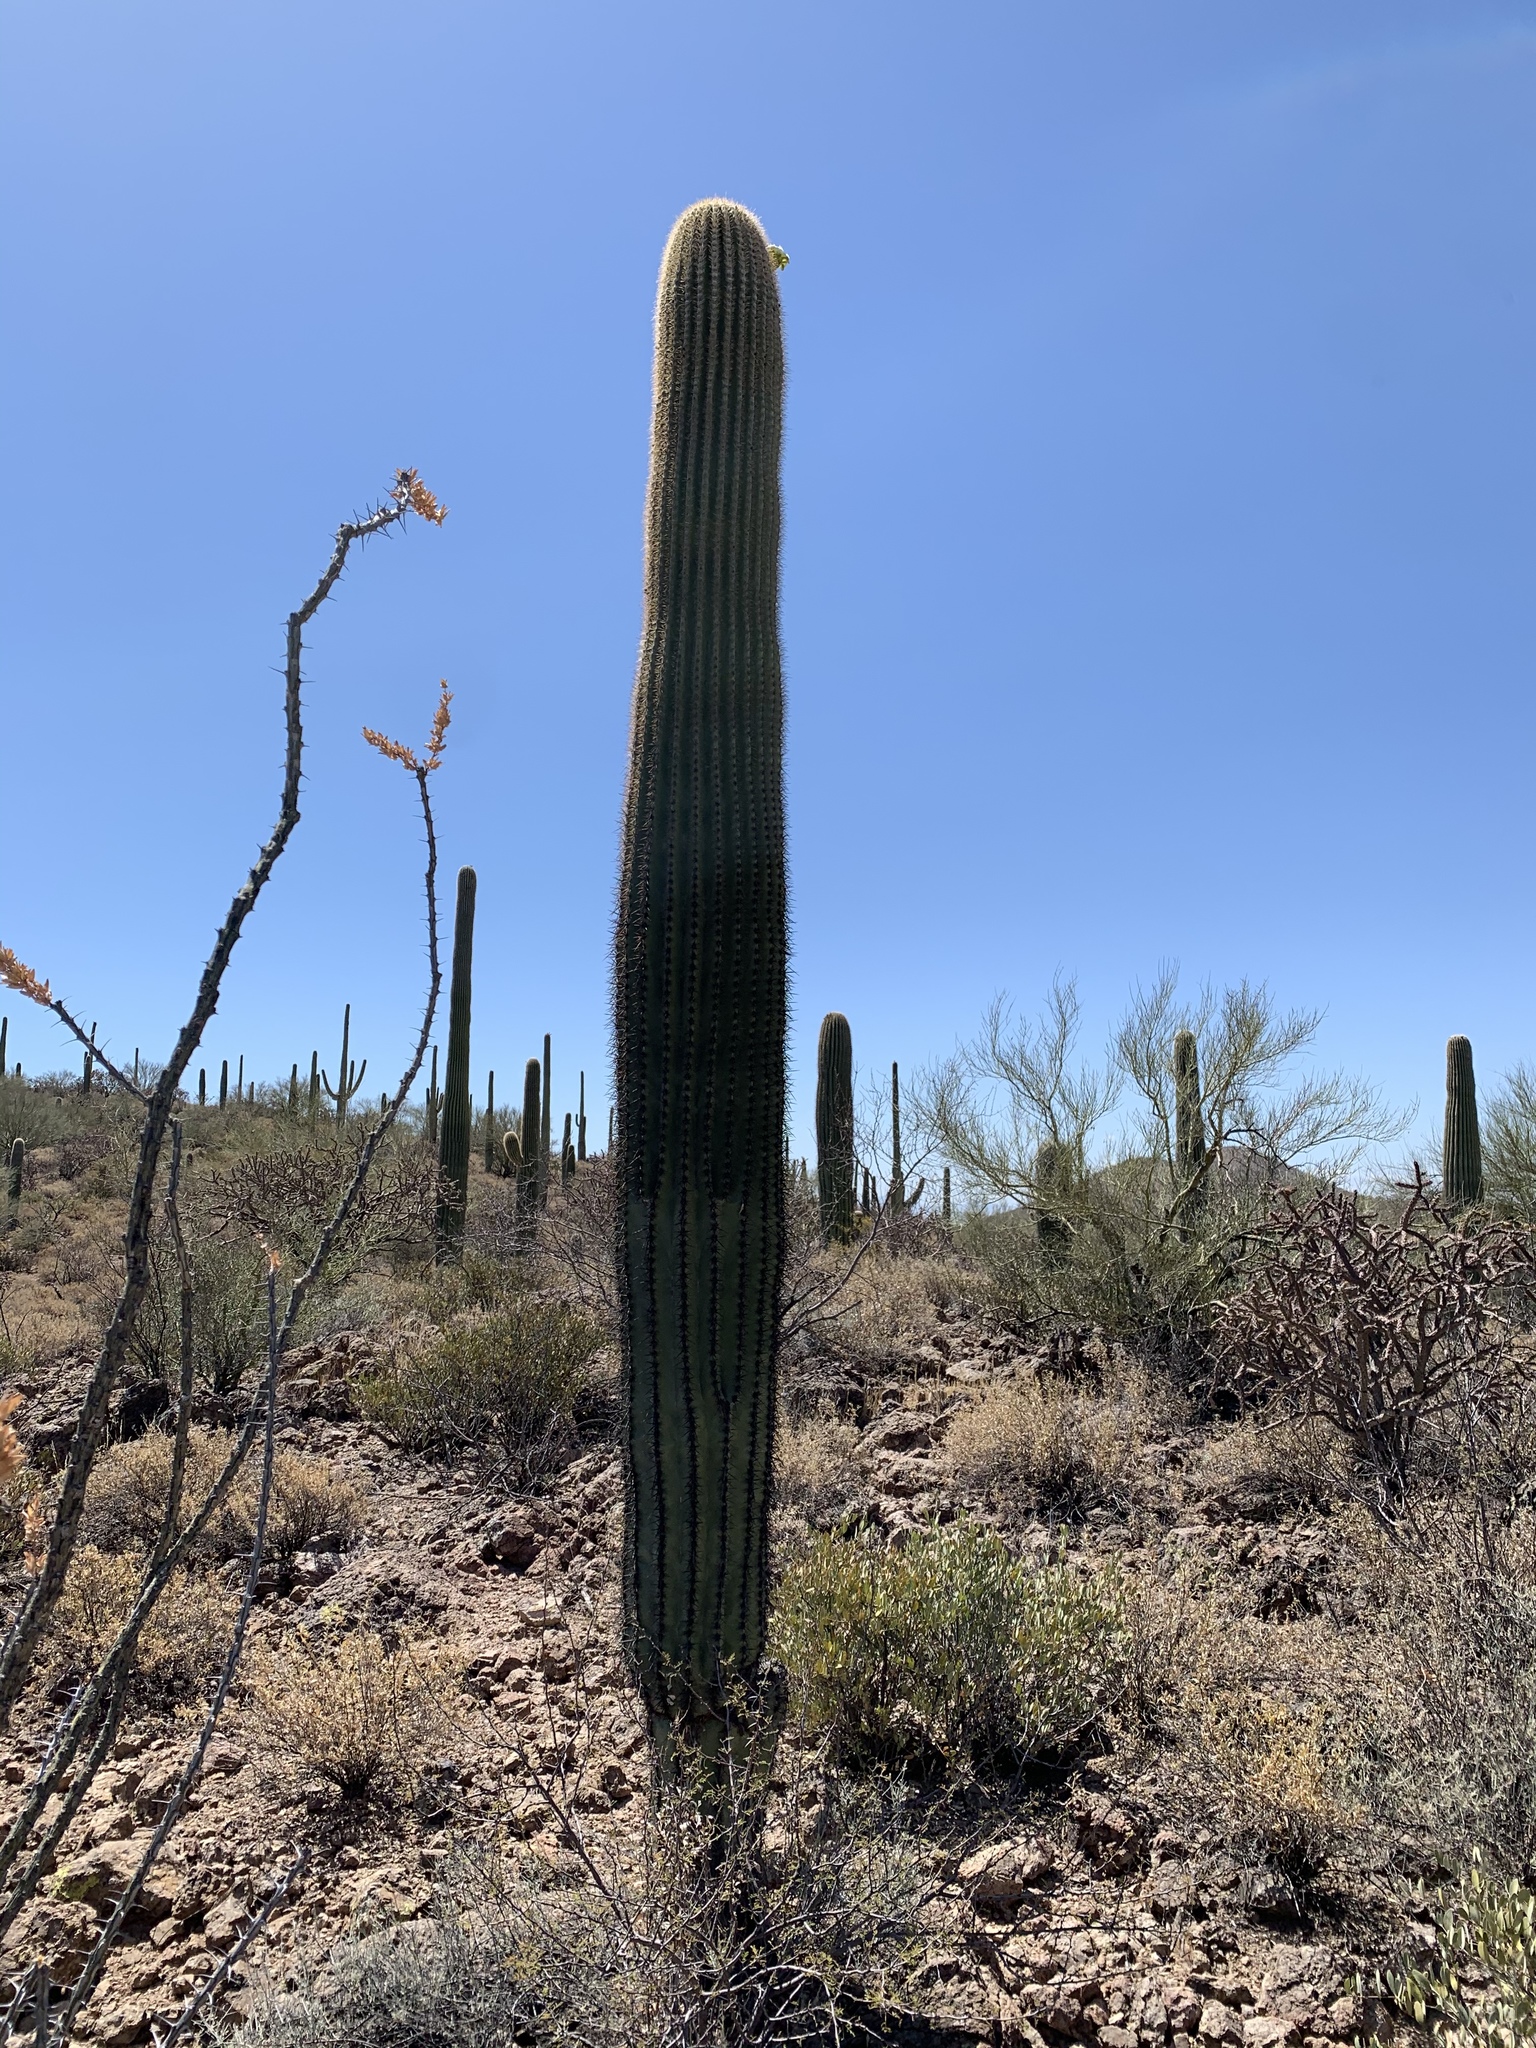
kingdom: Plantae
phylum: Tracheophyta
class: Magnoliopsida
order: Caryophyllales
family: Cactaceae
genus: Carnegiea
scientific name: Carnegiea gigantea
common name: Saguaro
